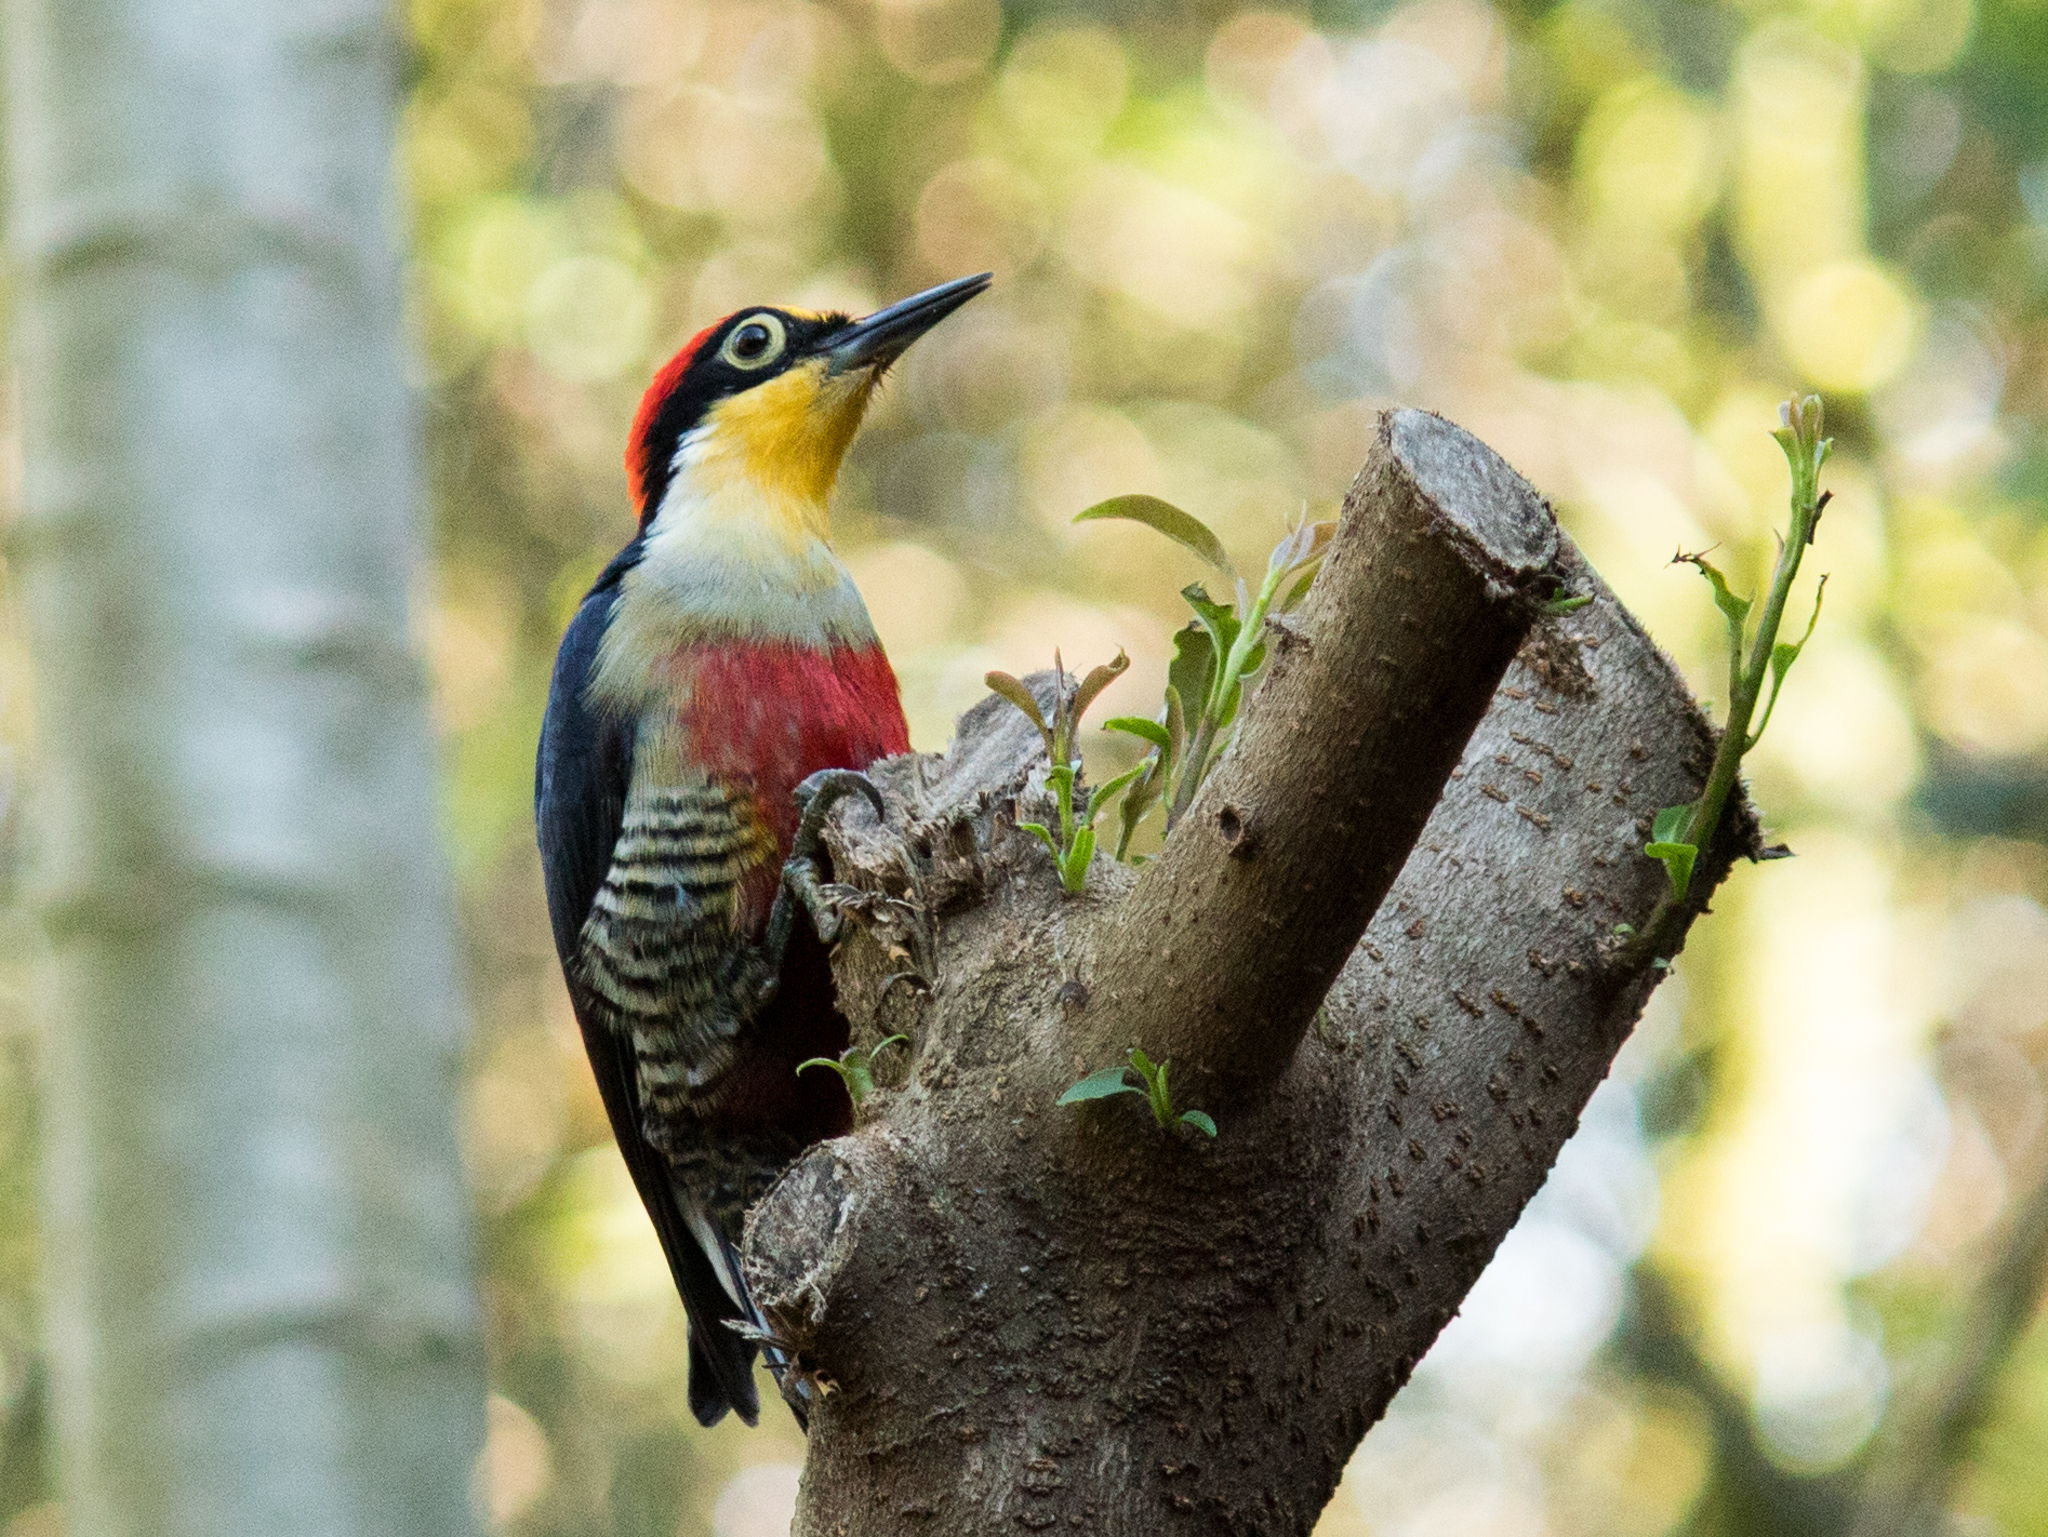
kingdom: Animalia
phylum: Chordata
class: Aves
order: Piciformes
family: Picidae
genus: Melanerpes
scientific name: Melanerpes flavifrons
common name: Yellow-fronted woodpecker
